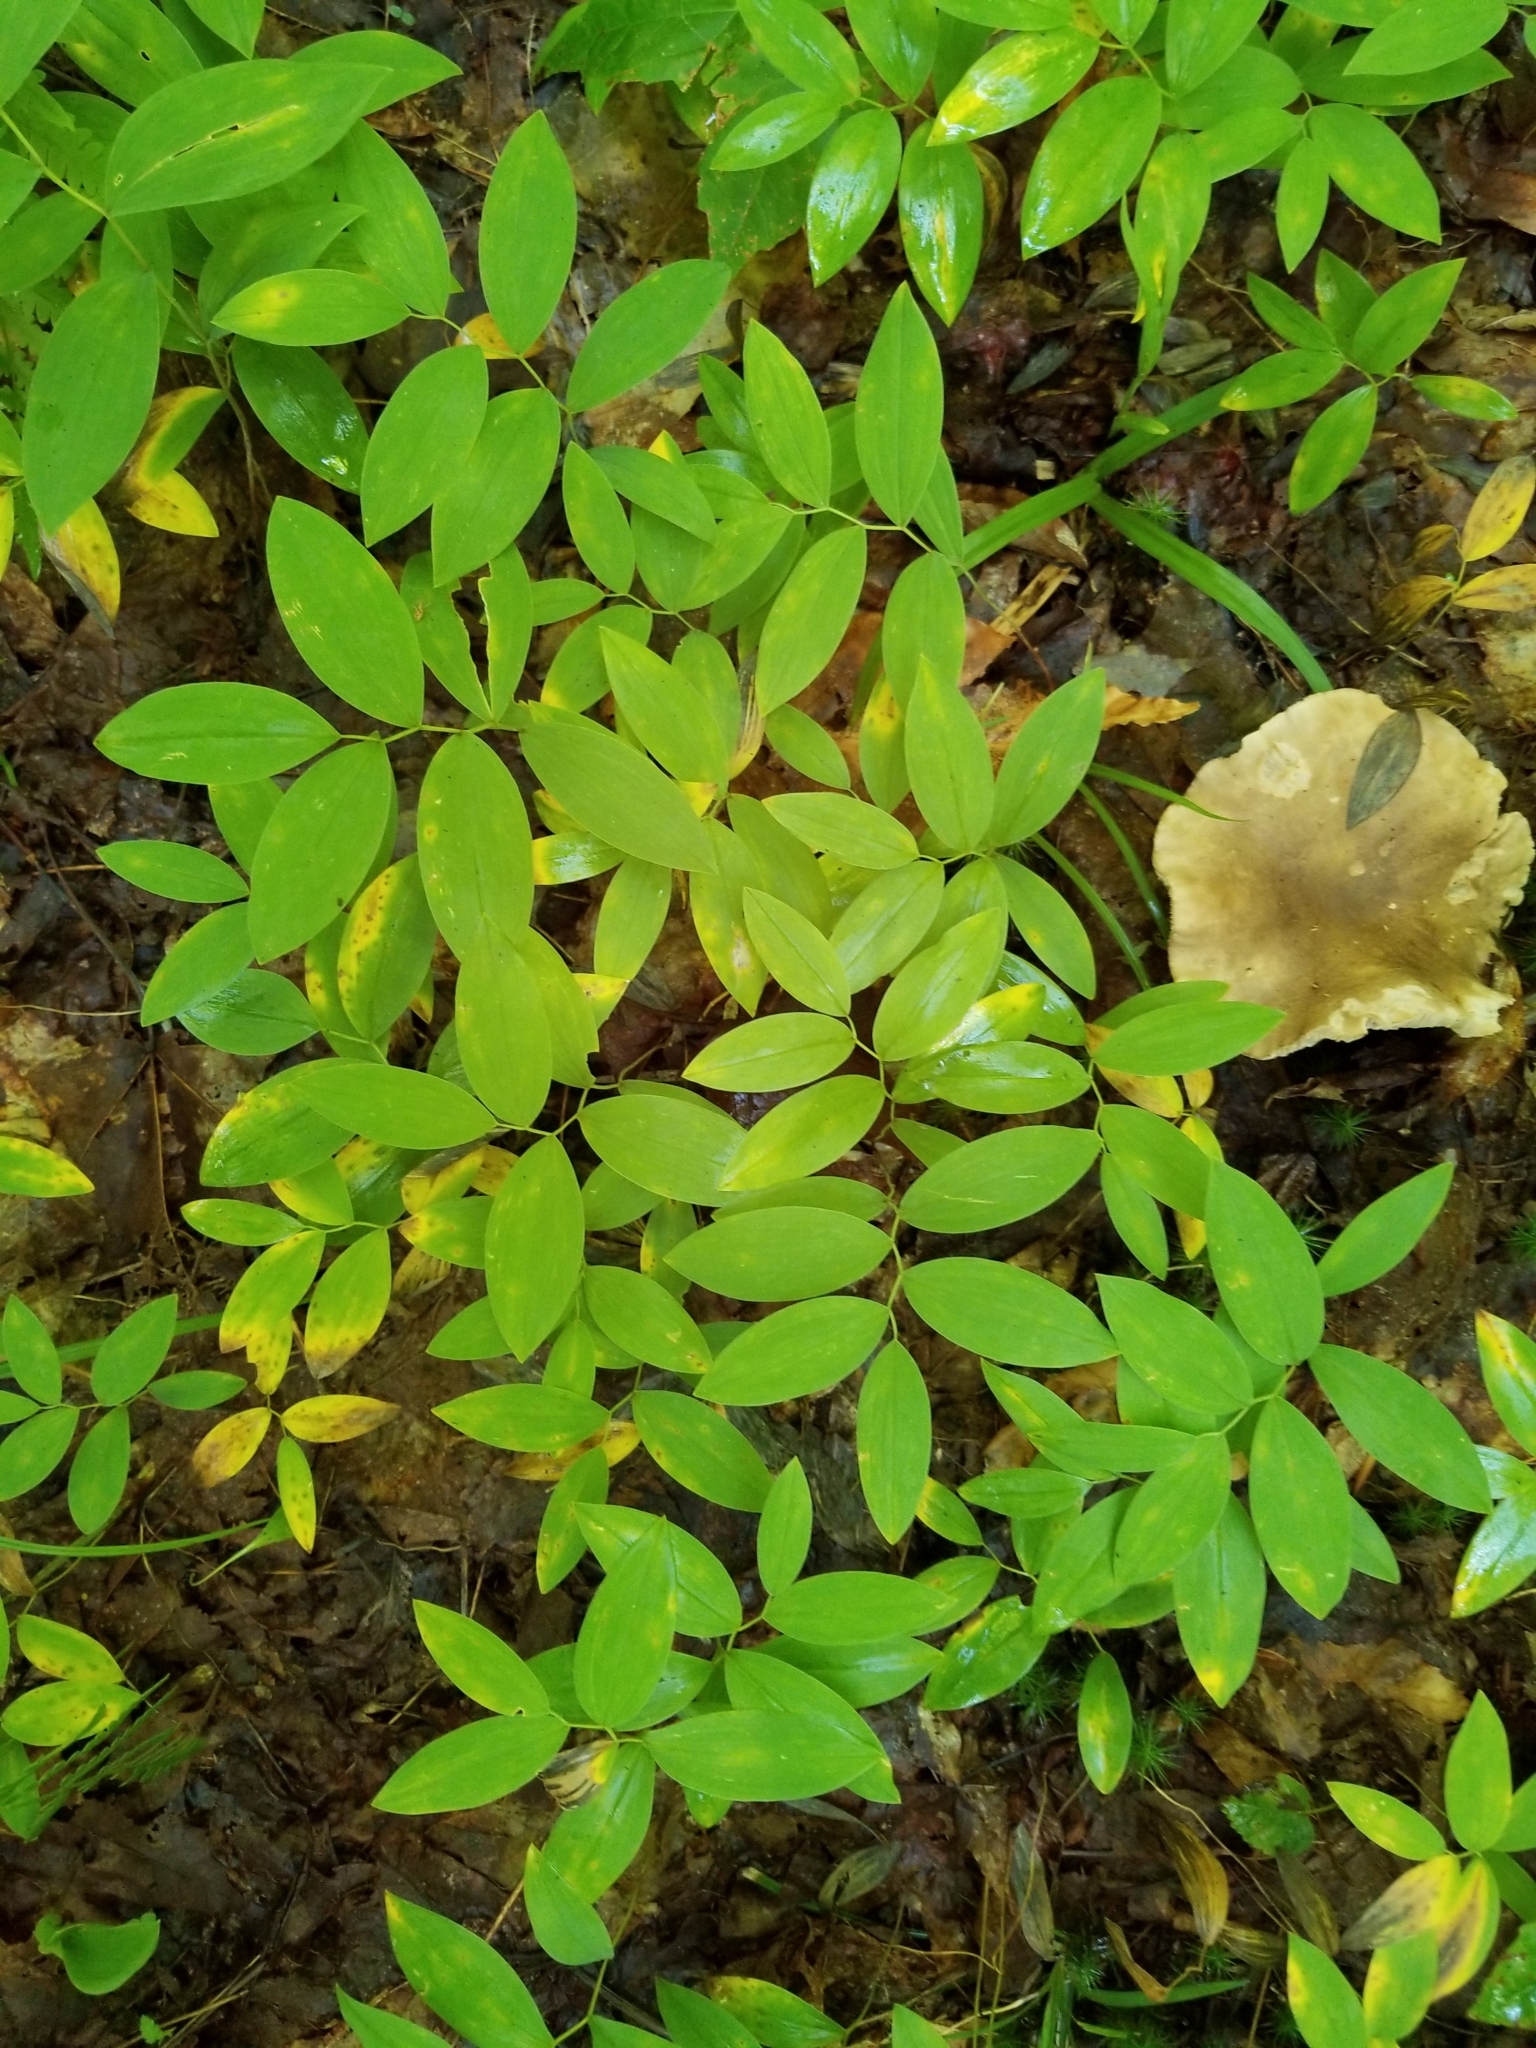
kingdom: Plantae
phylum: Tracheophyta
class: Liliopsida
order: Liliales
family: Colchicaceae
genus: Uvularia
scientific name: Uvularia sessilifolia
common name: Straw-lily
